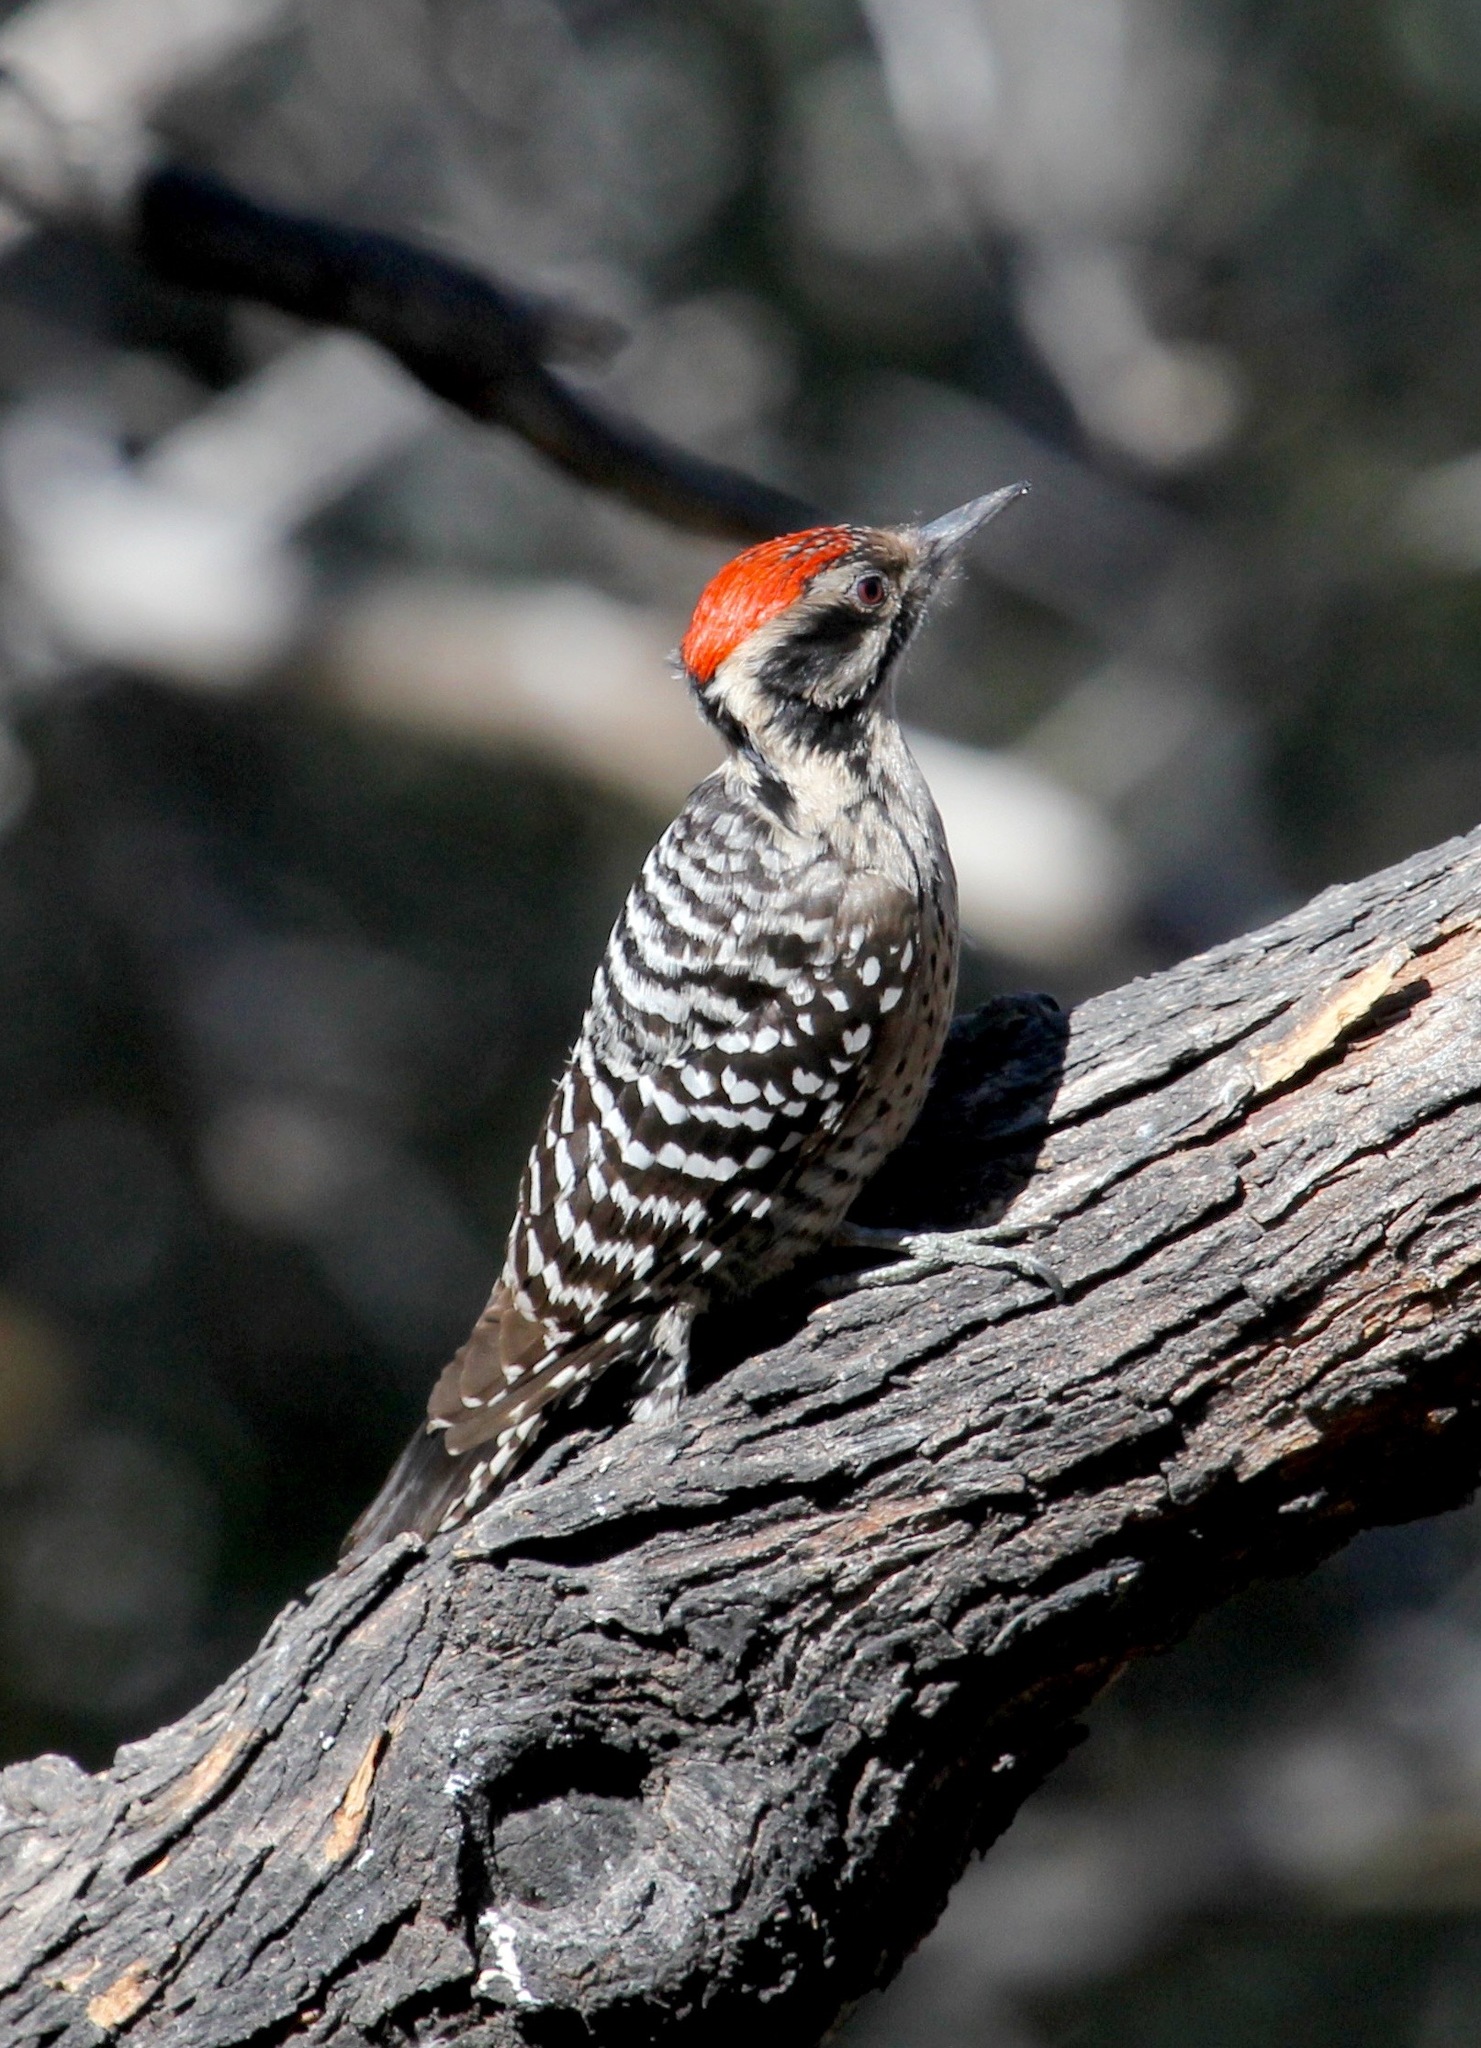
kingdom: Animalia
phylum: Chordata
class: Aves
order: Piciformes
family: Picidae
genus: Dryobates
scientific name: Dryobates scalaris
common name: Ladder-backed woodpecker
